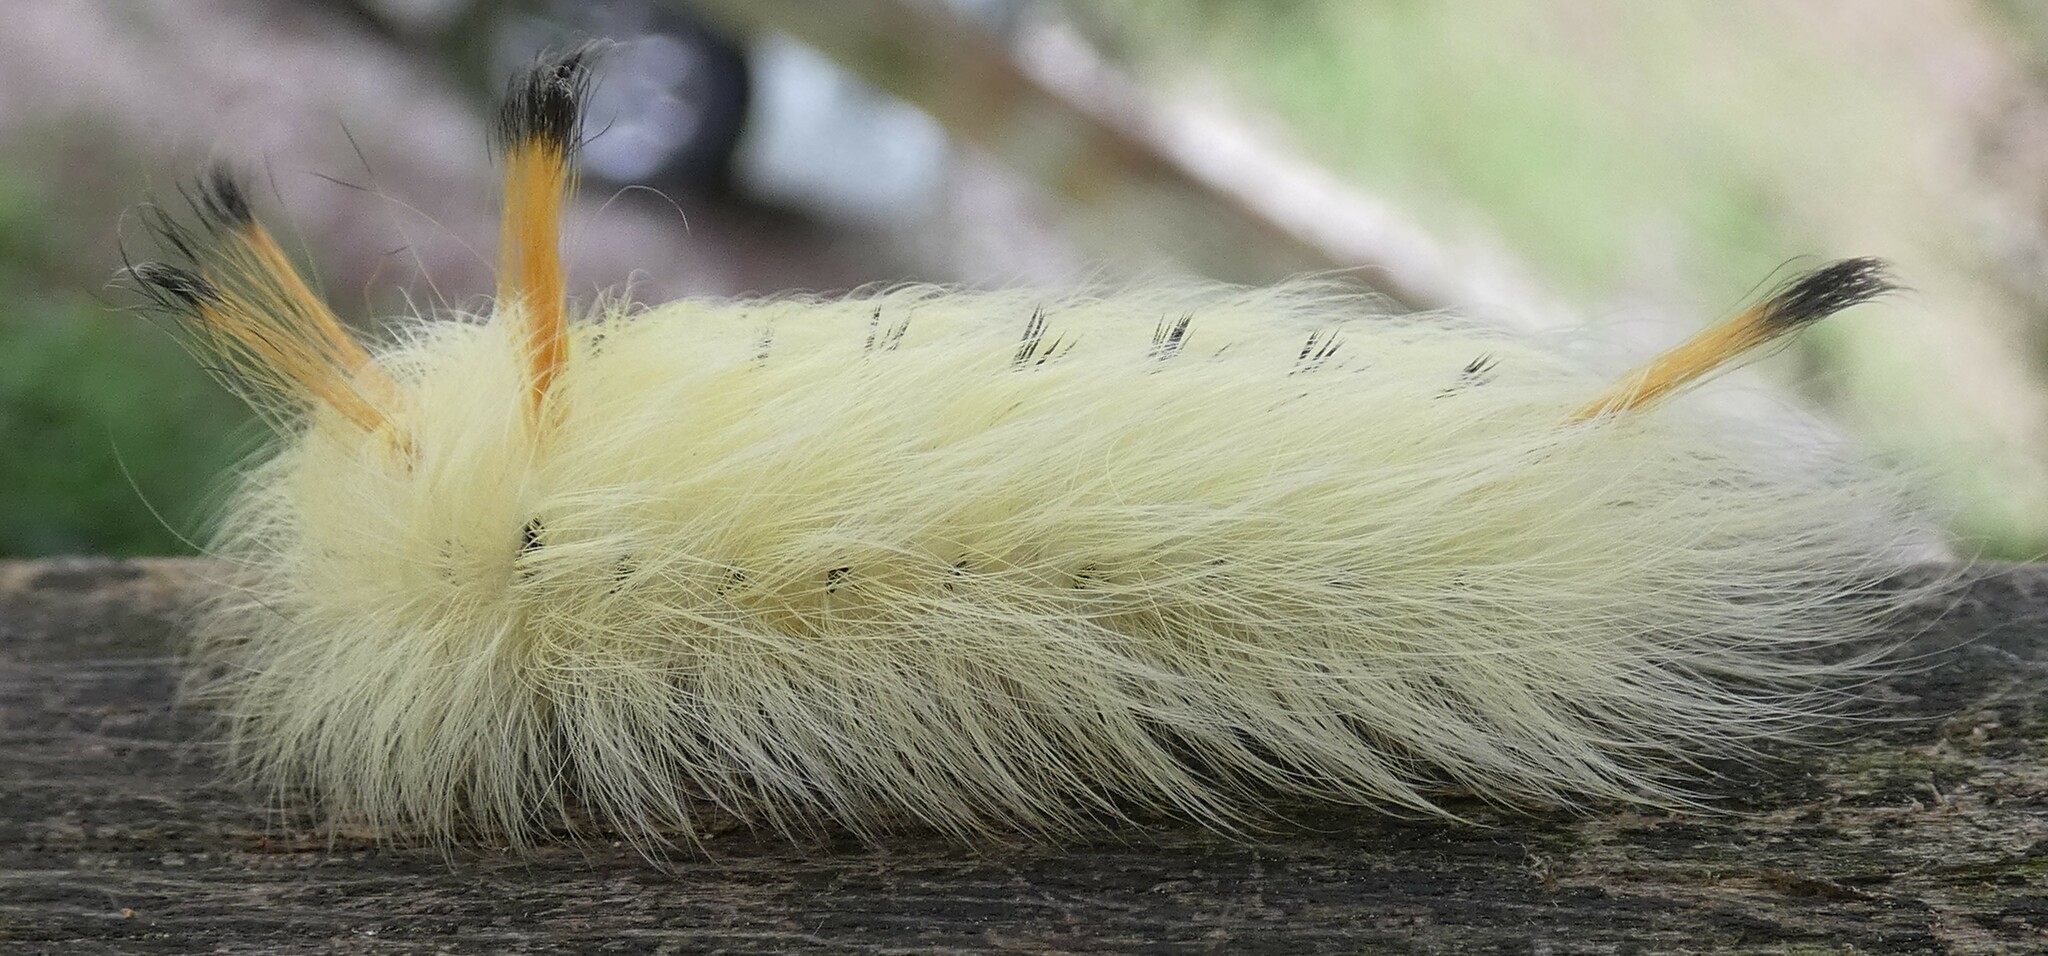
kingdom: Animalia
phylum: Arthropoda
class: Insecta
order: Lepidoptera
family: Apatelodidae
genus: Hygrochroa
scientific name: Hygrochroa Apatelodes torrefacta
